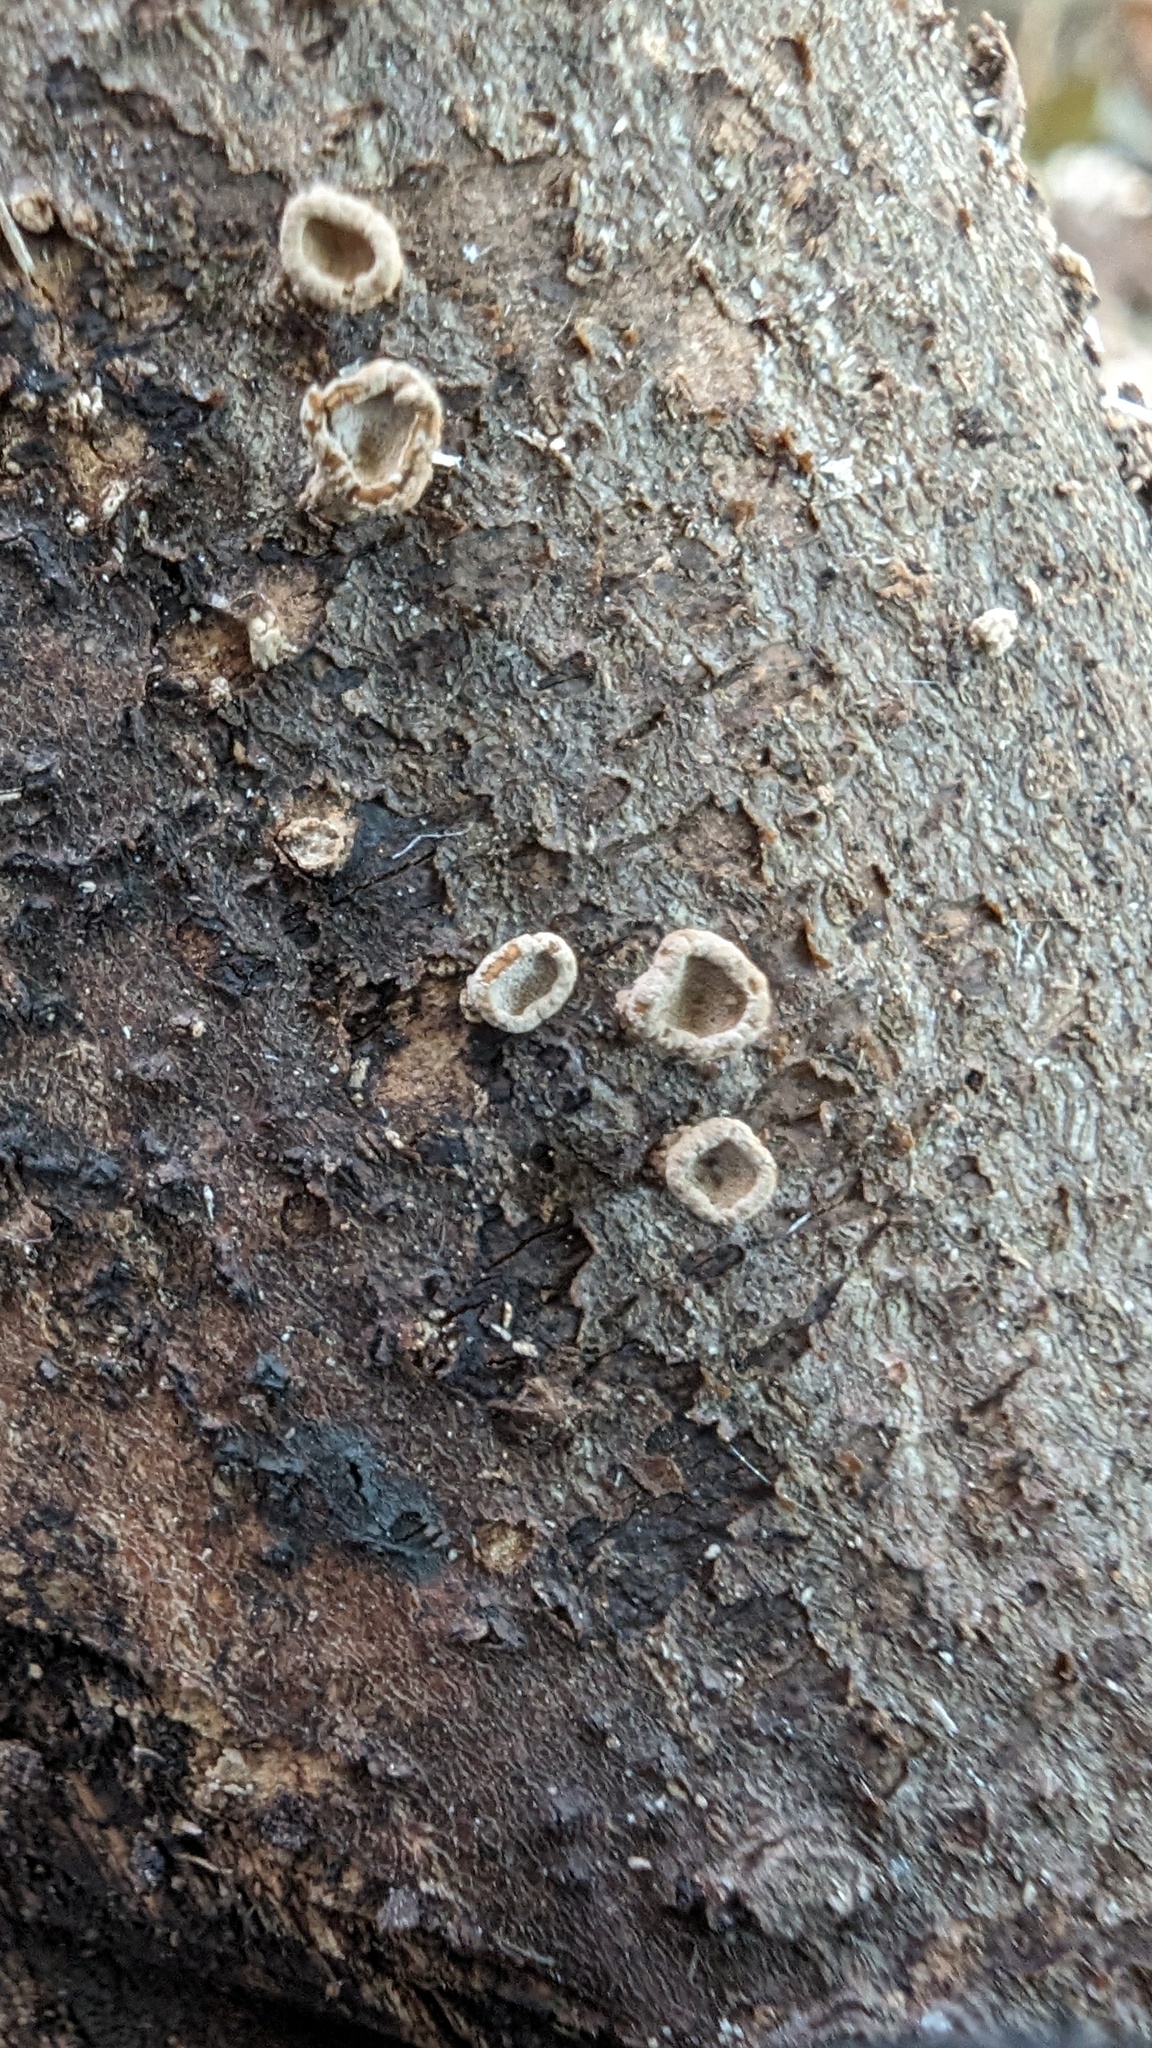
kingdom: Fungi
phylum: Basidiomycota
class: Agaricomycetes
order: Agaricales
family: Schizophyllaceae
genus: Porodisculus
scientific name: Porodisculus pendulus
